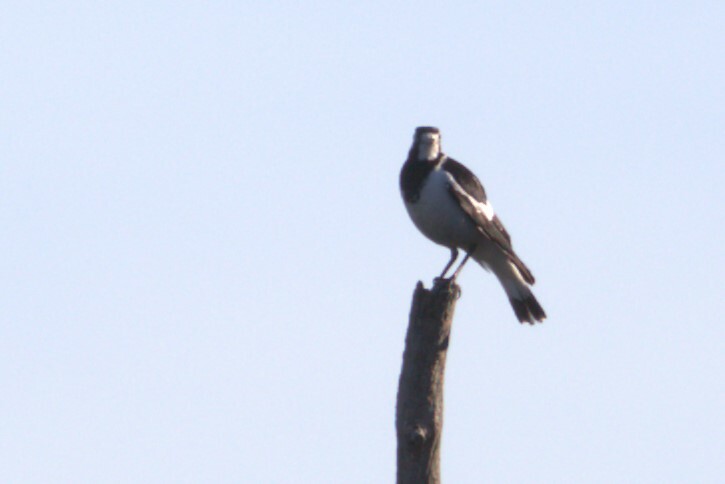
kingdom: Animalia
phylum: Chordata
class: Aves
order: Passeriformes
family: Monarchidae
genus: Grallina
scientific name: Grallina cyanoleuca
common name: Magpie-lark
